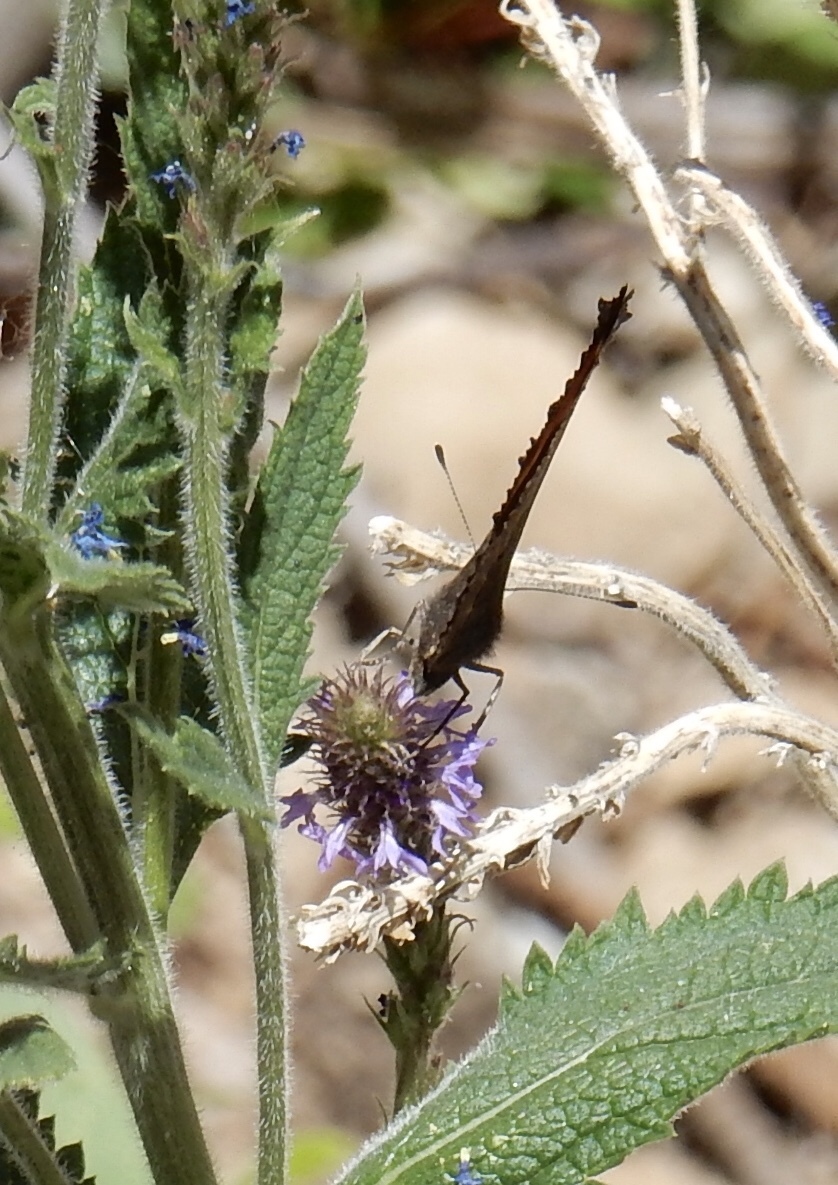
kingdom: Animalia
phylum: Arthropoda
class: Insecta
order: Lepidoptera
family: Nymphalidae
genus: Aglais
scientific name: Aglais milberti
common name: Milbert's tortoiseshell
